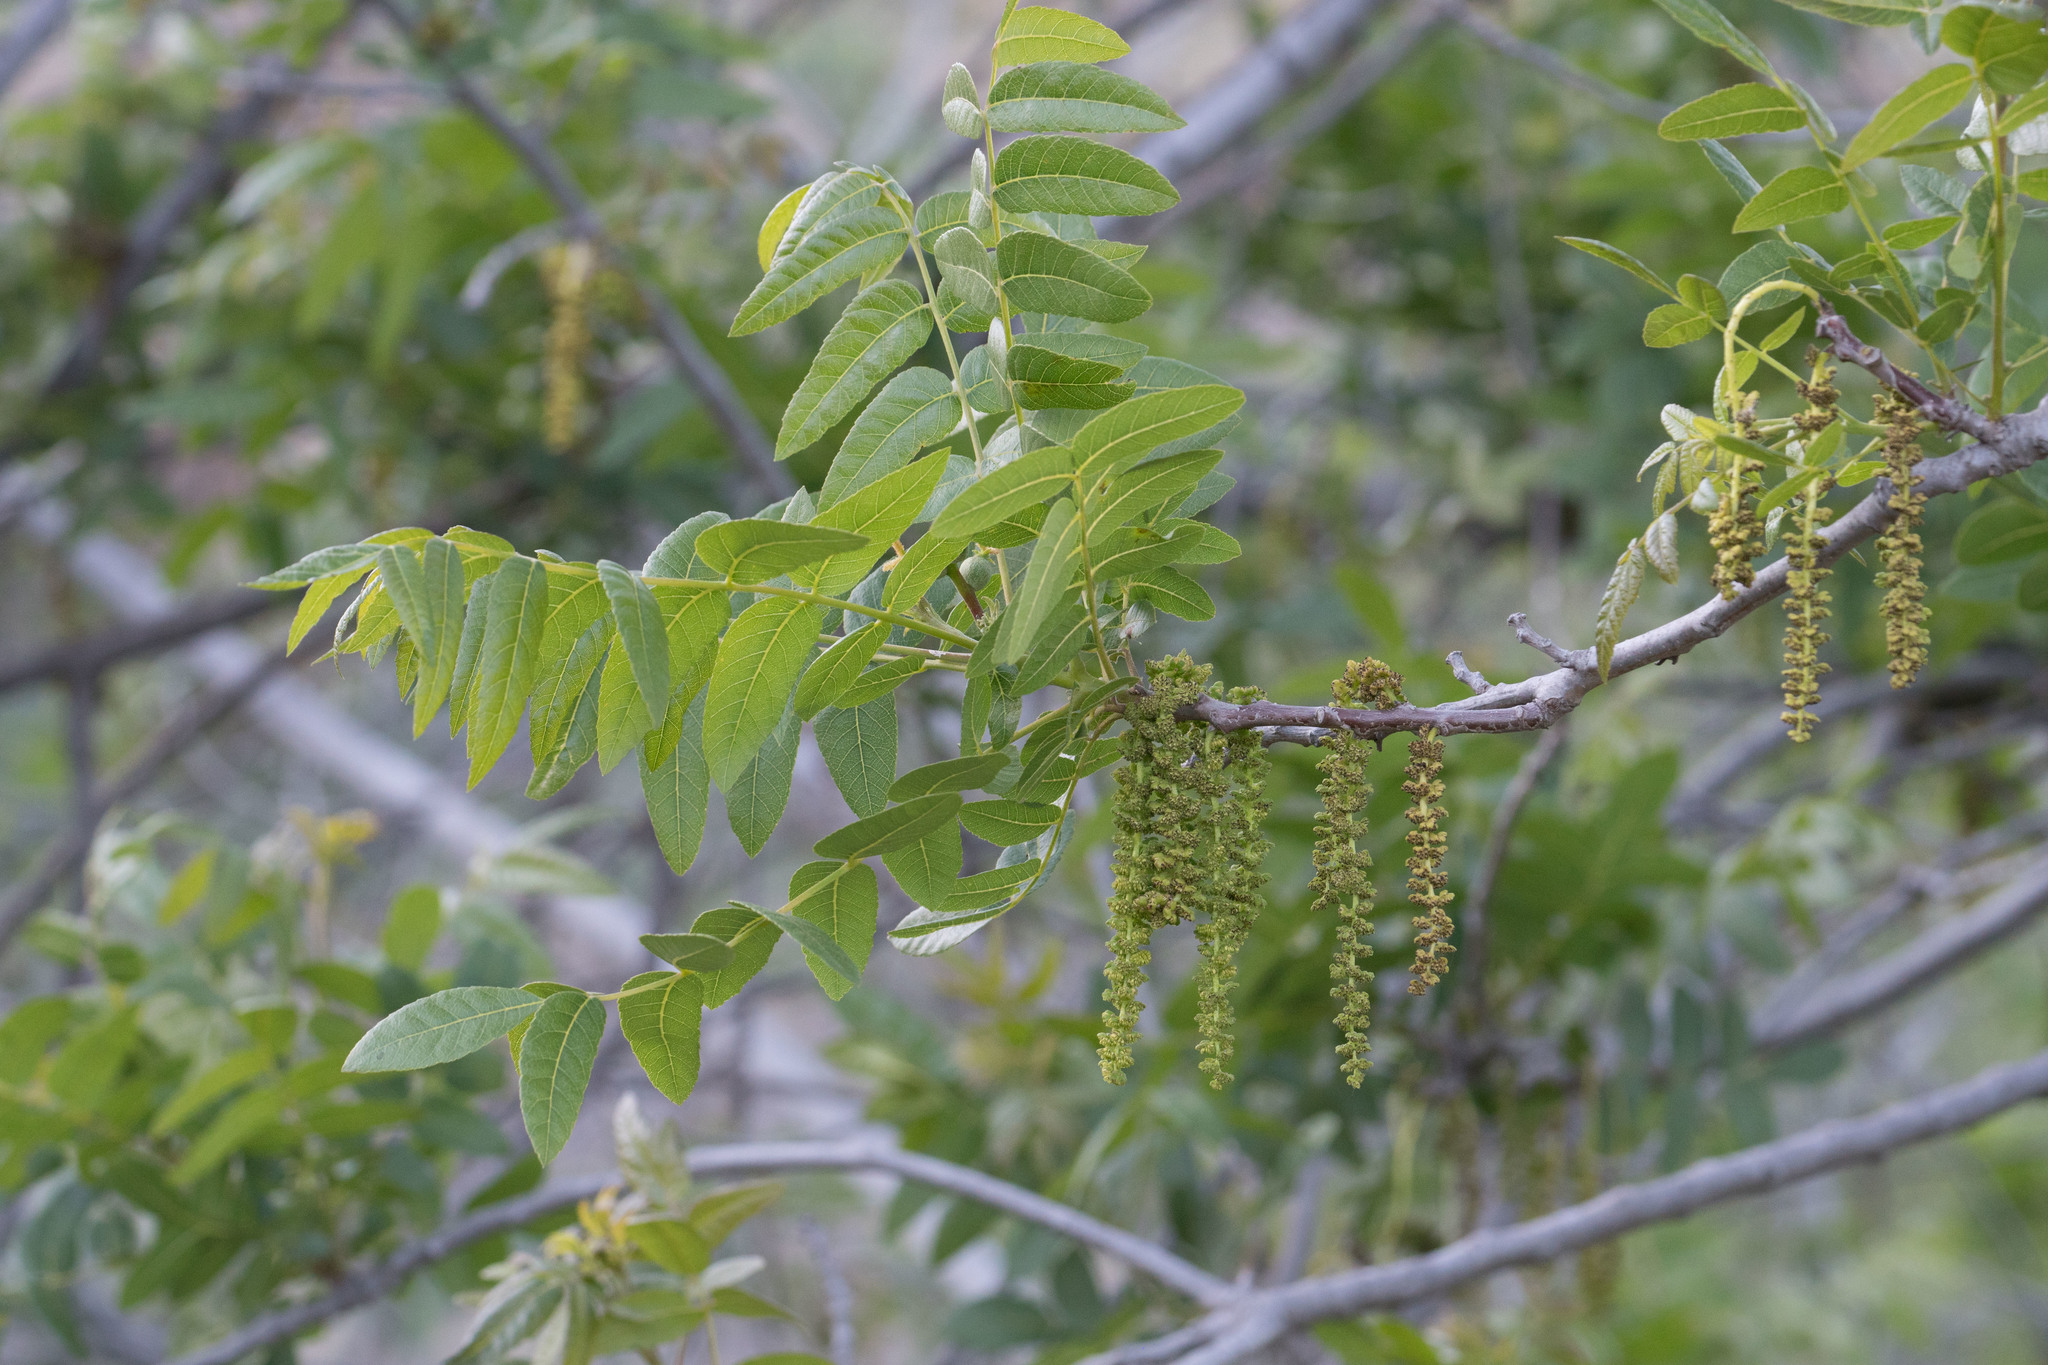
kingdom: Plantae
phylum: Tracheophyta
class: Magnoliopsida
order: Fagales
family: Juglandaceae
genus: Juglans
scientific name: Juglans californica
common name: Southern california black walnut
